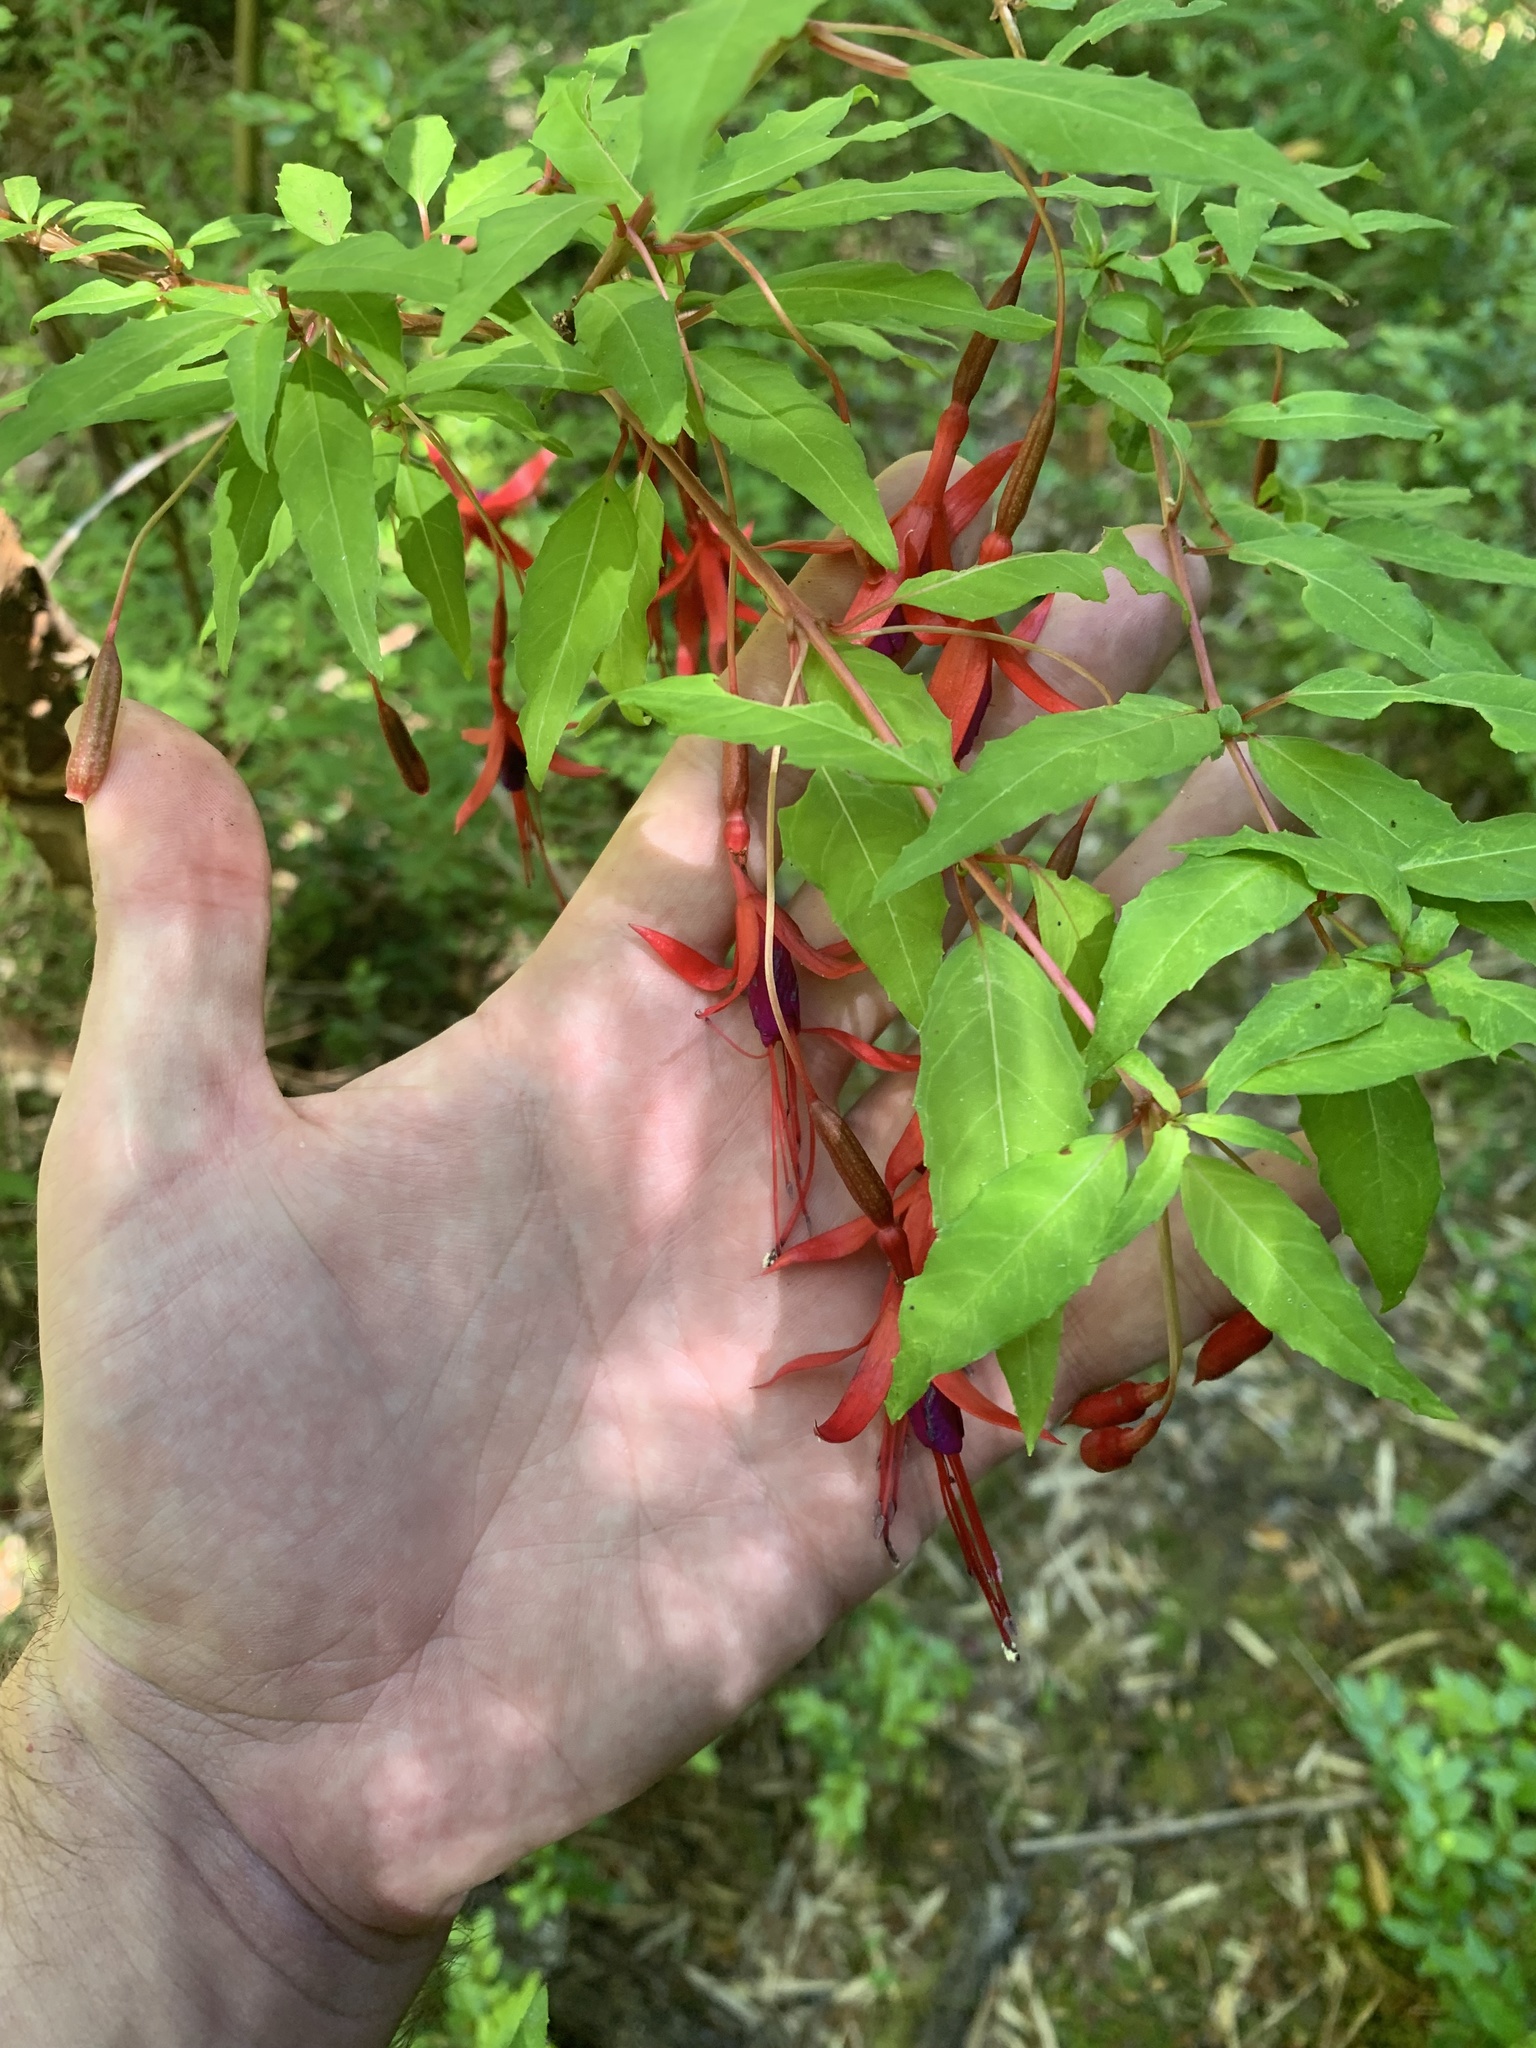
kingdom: Plantae
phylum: Tracheophyta
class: Magnoliopsida
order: Myrtales
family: Onagraceae
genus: Fuchsia
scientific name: Fuchsia magellanica
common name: Hardy fuchsia
